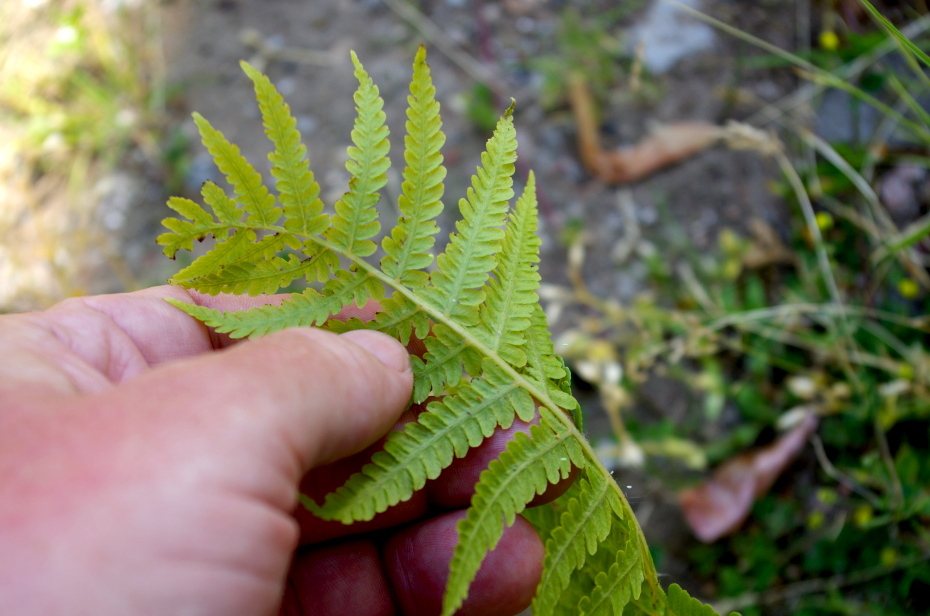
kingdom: Plantae
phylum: Tracheophyta
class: Polypodiopsida
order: Polypodiales
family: Onocleaceae
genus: Matteuccia
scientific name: Matteuccia struthiopteris
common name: Ostrich fern
